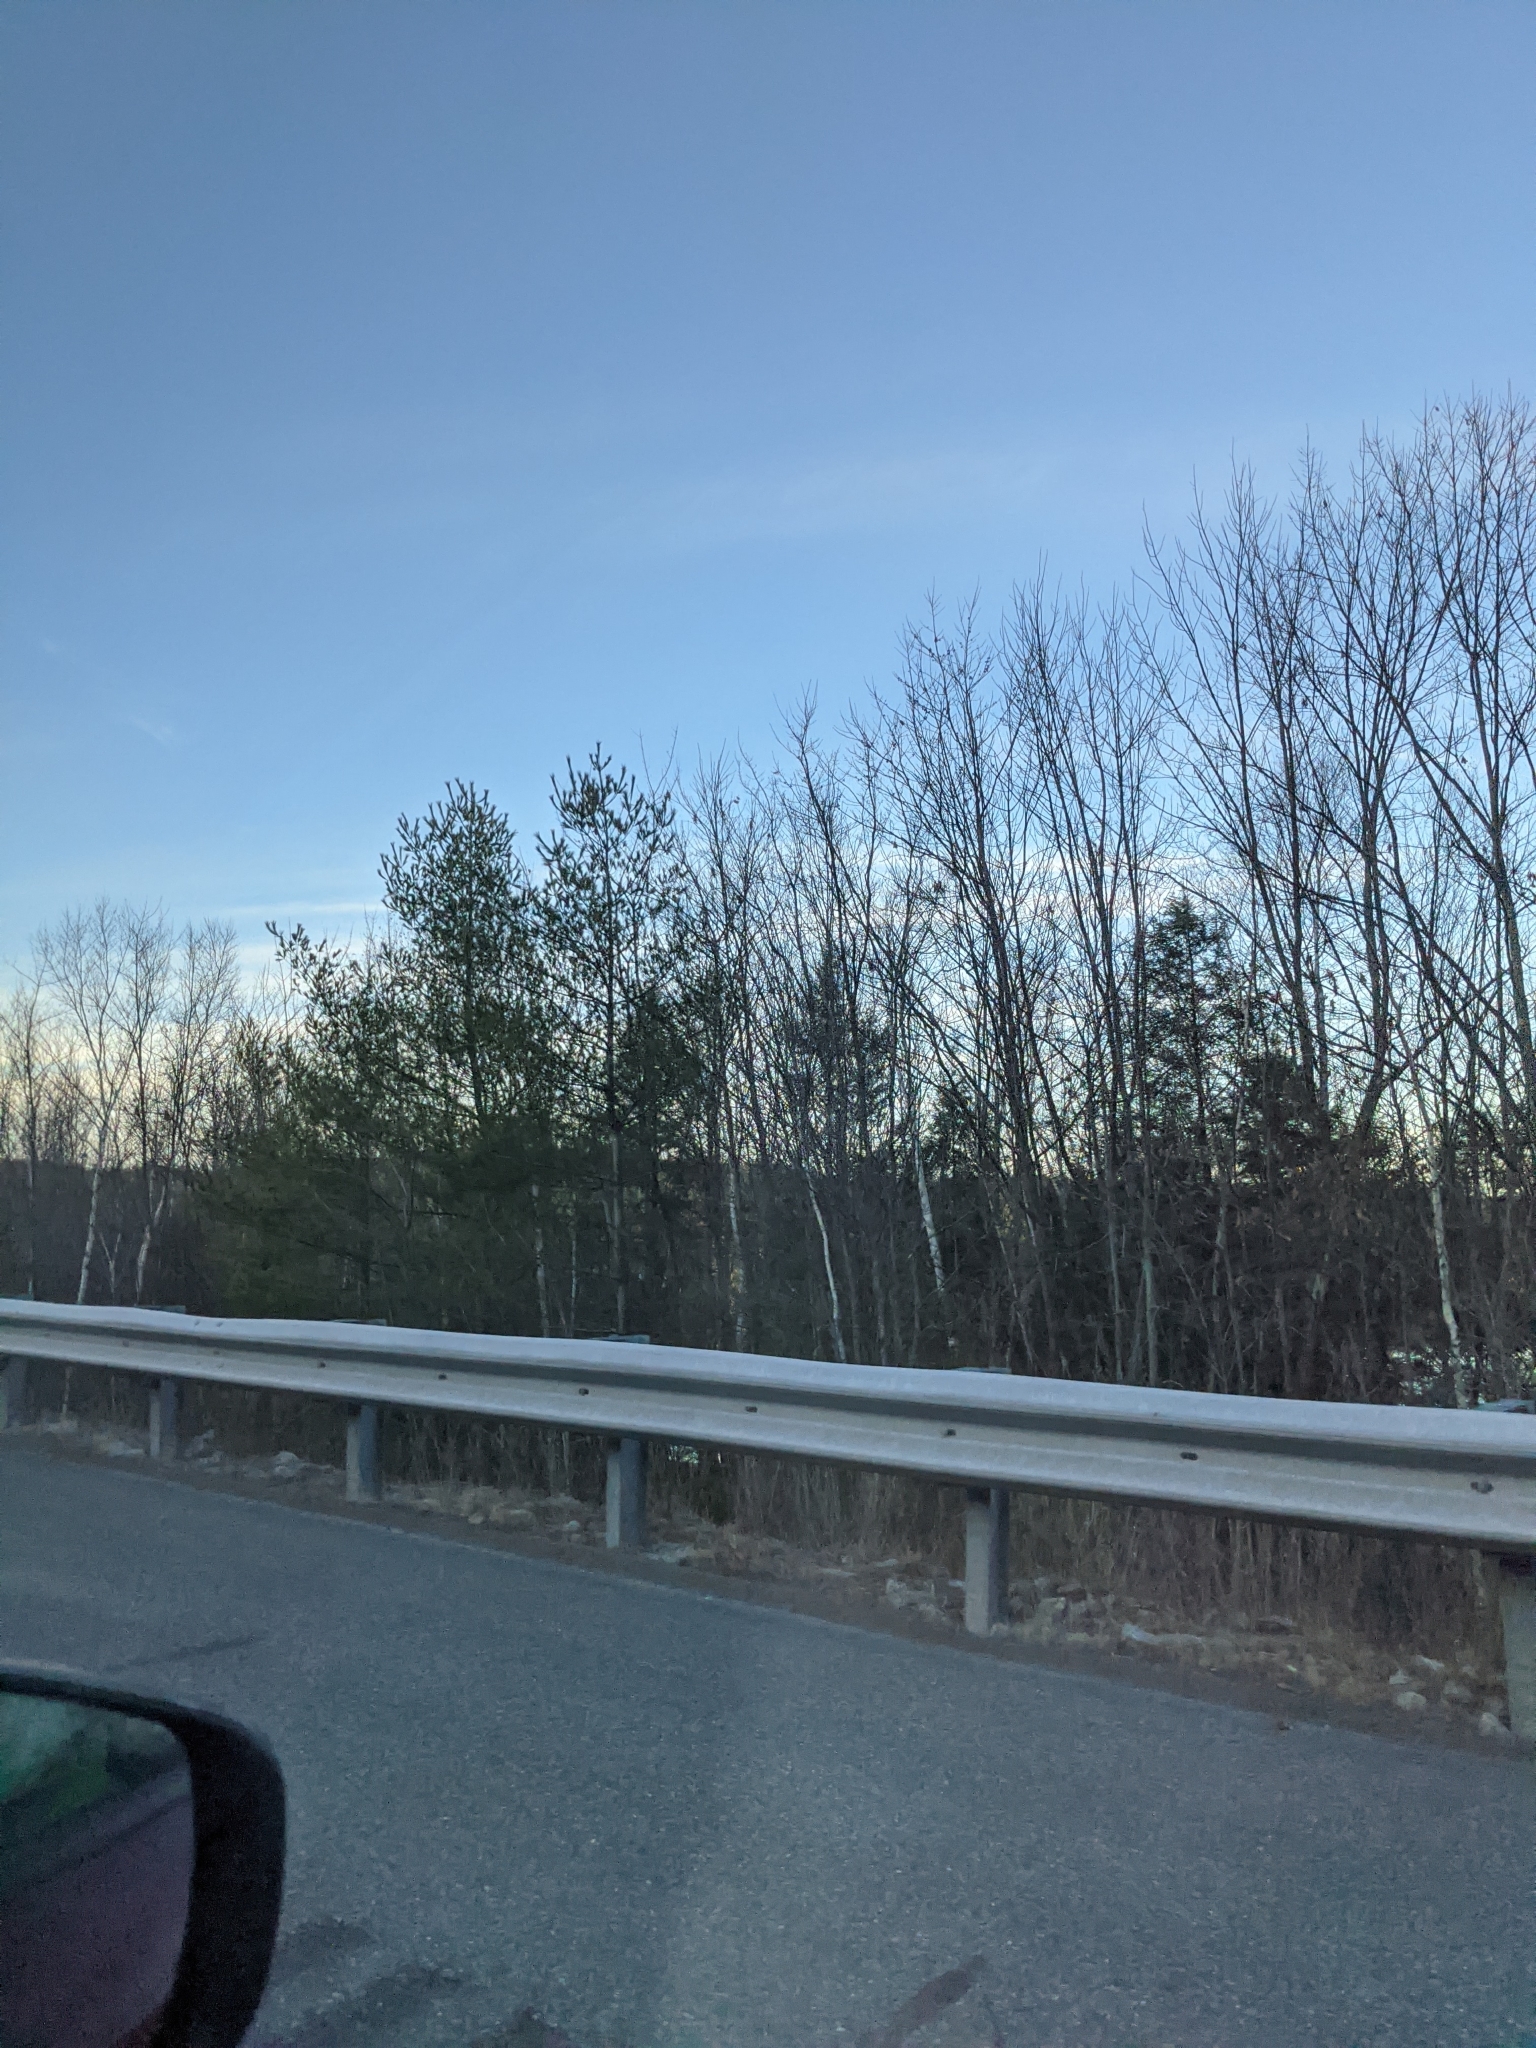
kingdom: Plantae
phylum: Tracheophyta
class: Pinopsida
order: Pinales
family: Pinaceae
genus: Pinus
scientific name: Pinus strobus
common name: Weymouth pine
